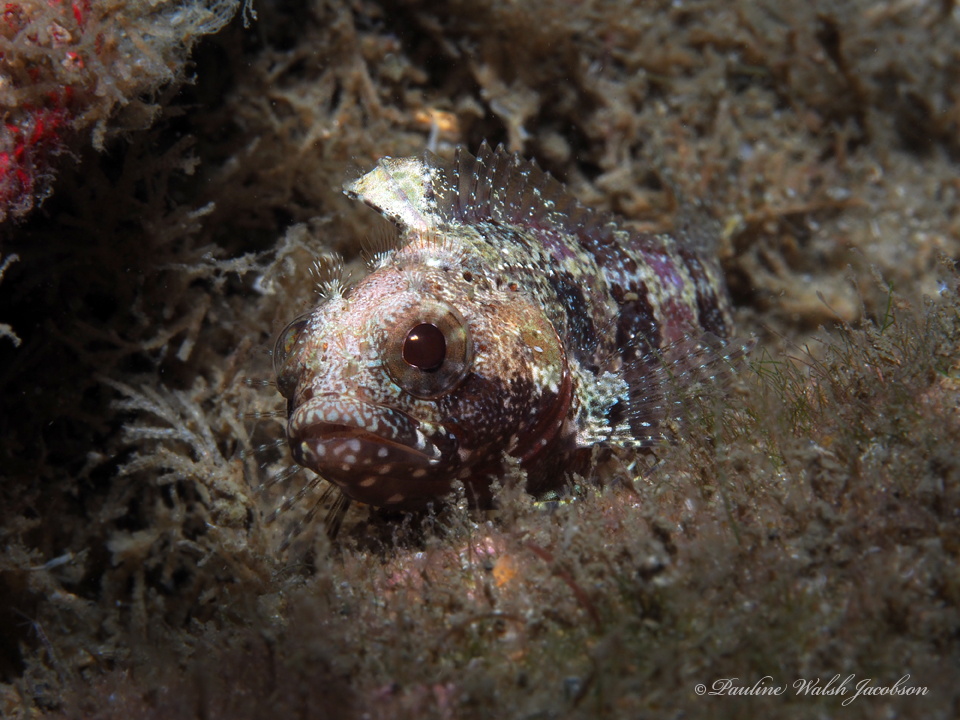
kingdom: Animalia
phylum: Chordata
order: Perciformes
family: Labrisomidae
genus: Gobioclinus
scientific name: Gobioclinus kalisherae
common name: Downy blenny
